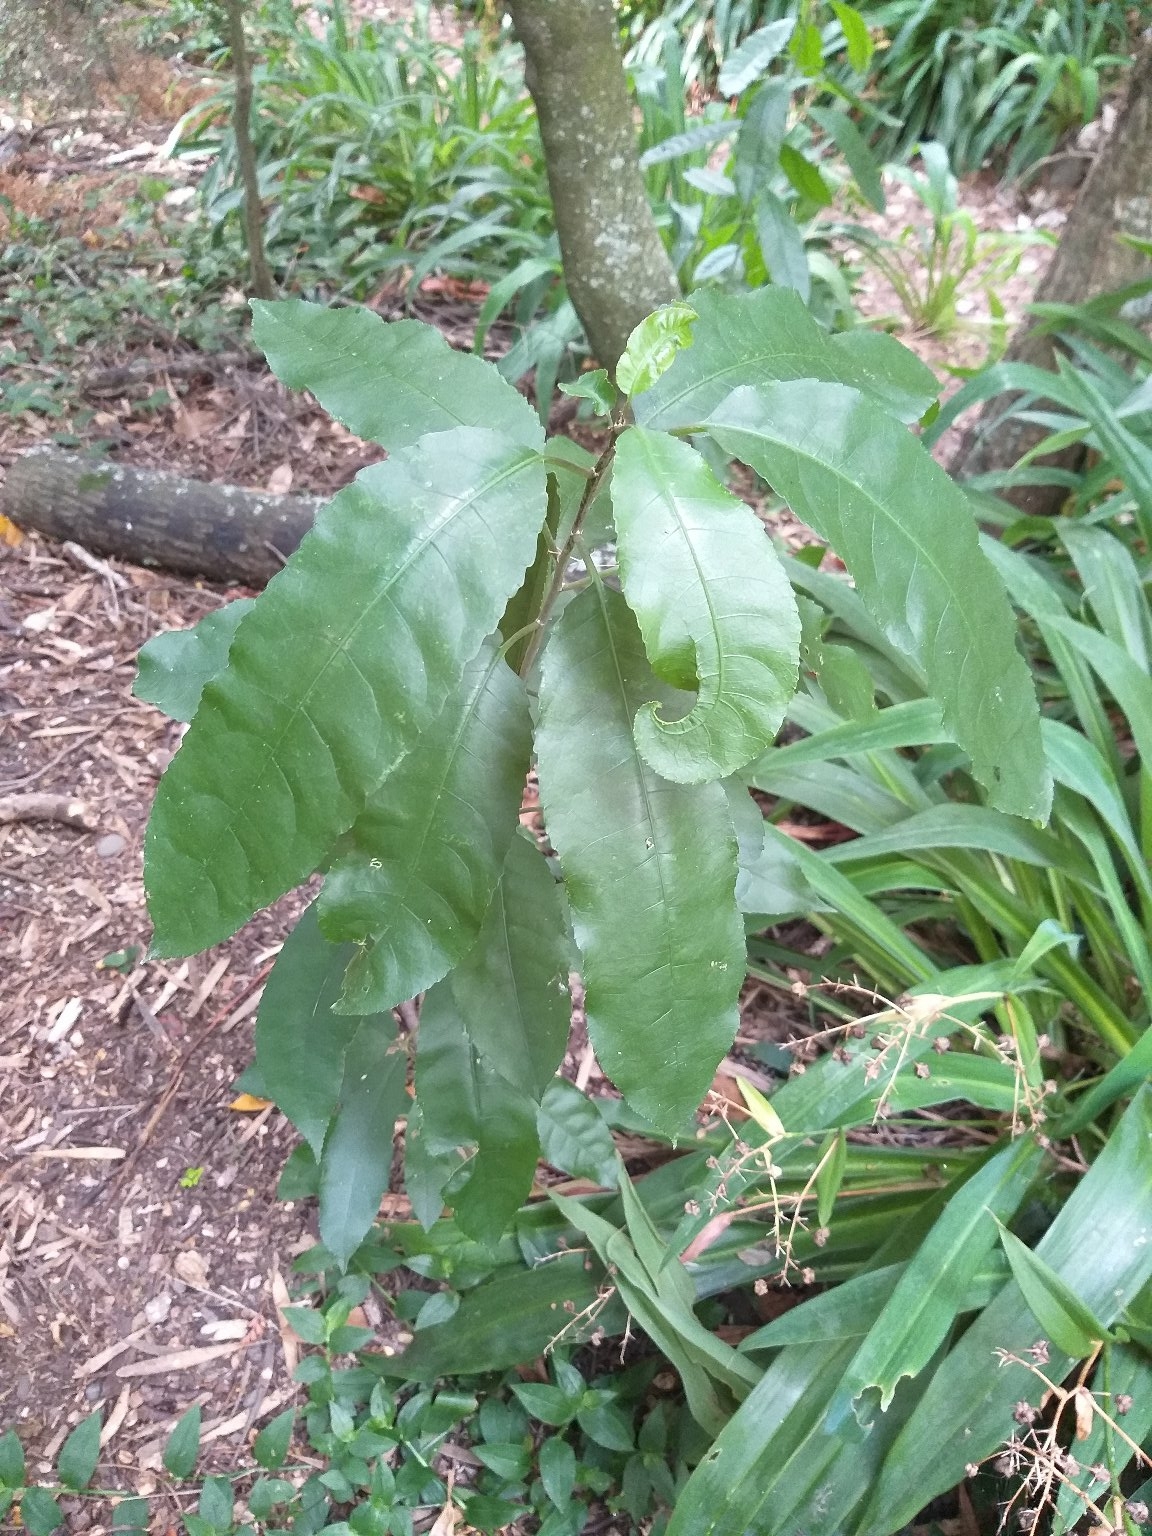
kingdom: Plantae
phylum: Tracheophyta
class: Magnoliopsida
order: Malpighiales
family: Violaceae
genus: Melicytus
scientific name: Melicytus ramiflorus
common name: Mahoe
